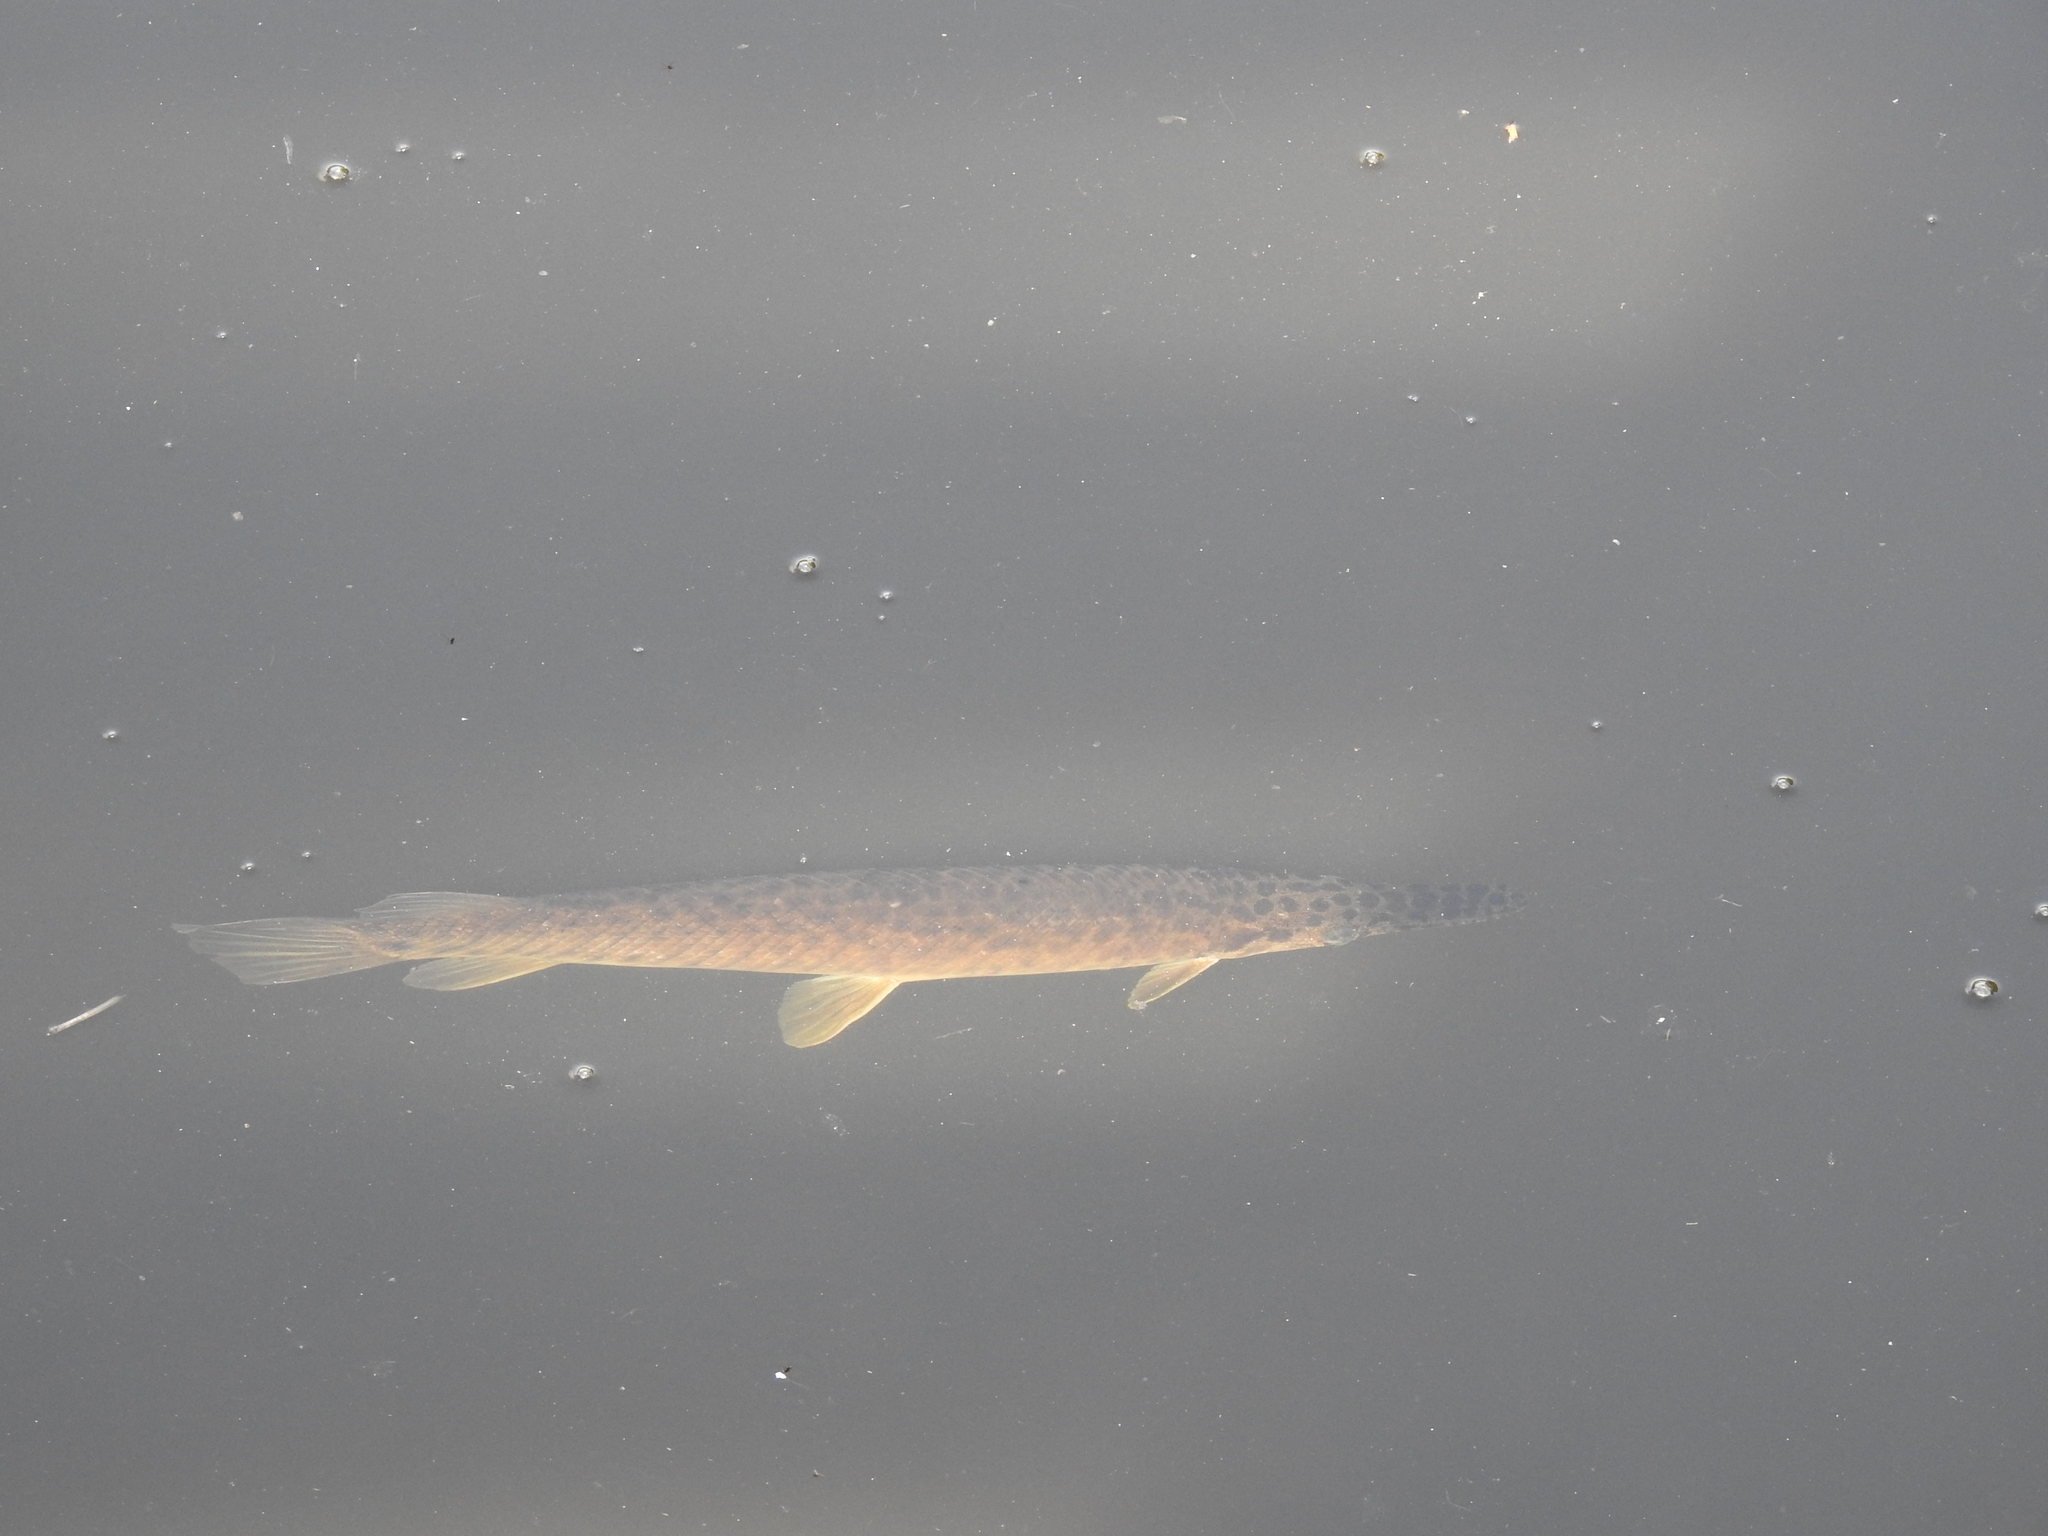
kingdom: Animalia
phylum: Chordata
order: Lepisosteiformes
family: Lepisosteidae
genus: Lepisosteus
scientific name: Lepisosteus platyrhincus
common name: Florida gar
